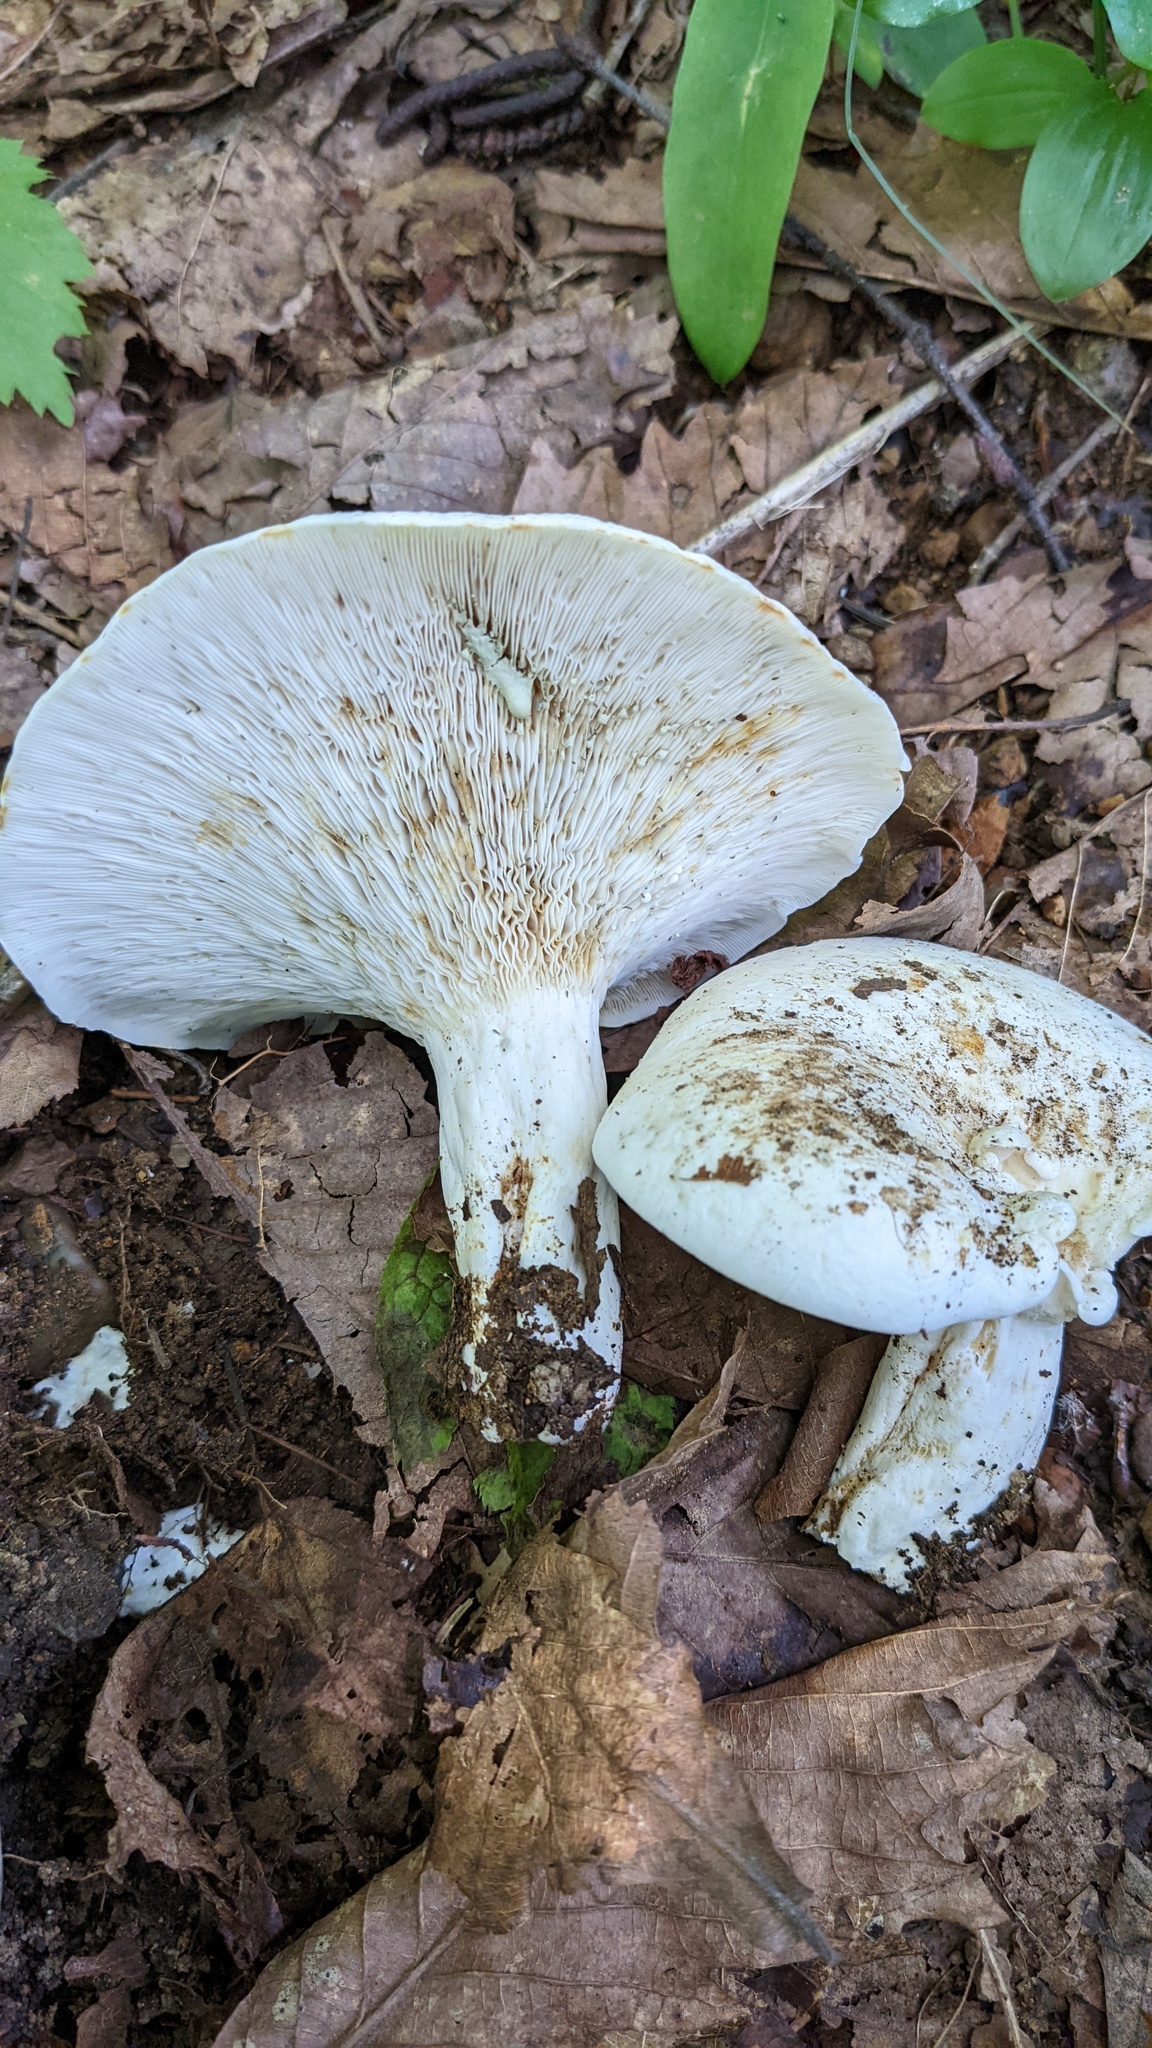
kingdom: Fungi
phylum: Basidiomycota
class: Agaricomycetes
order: Russulales
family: Russulaceae
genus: Lactifluus
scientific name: Lactifluus glaucescens
